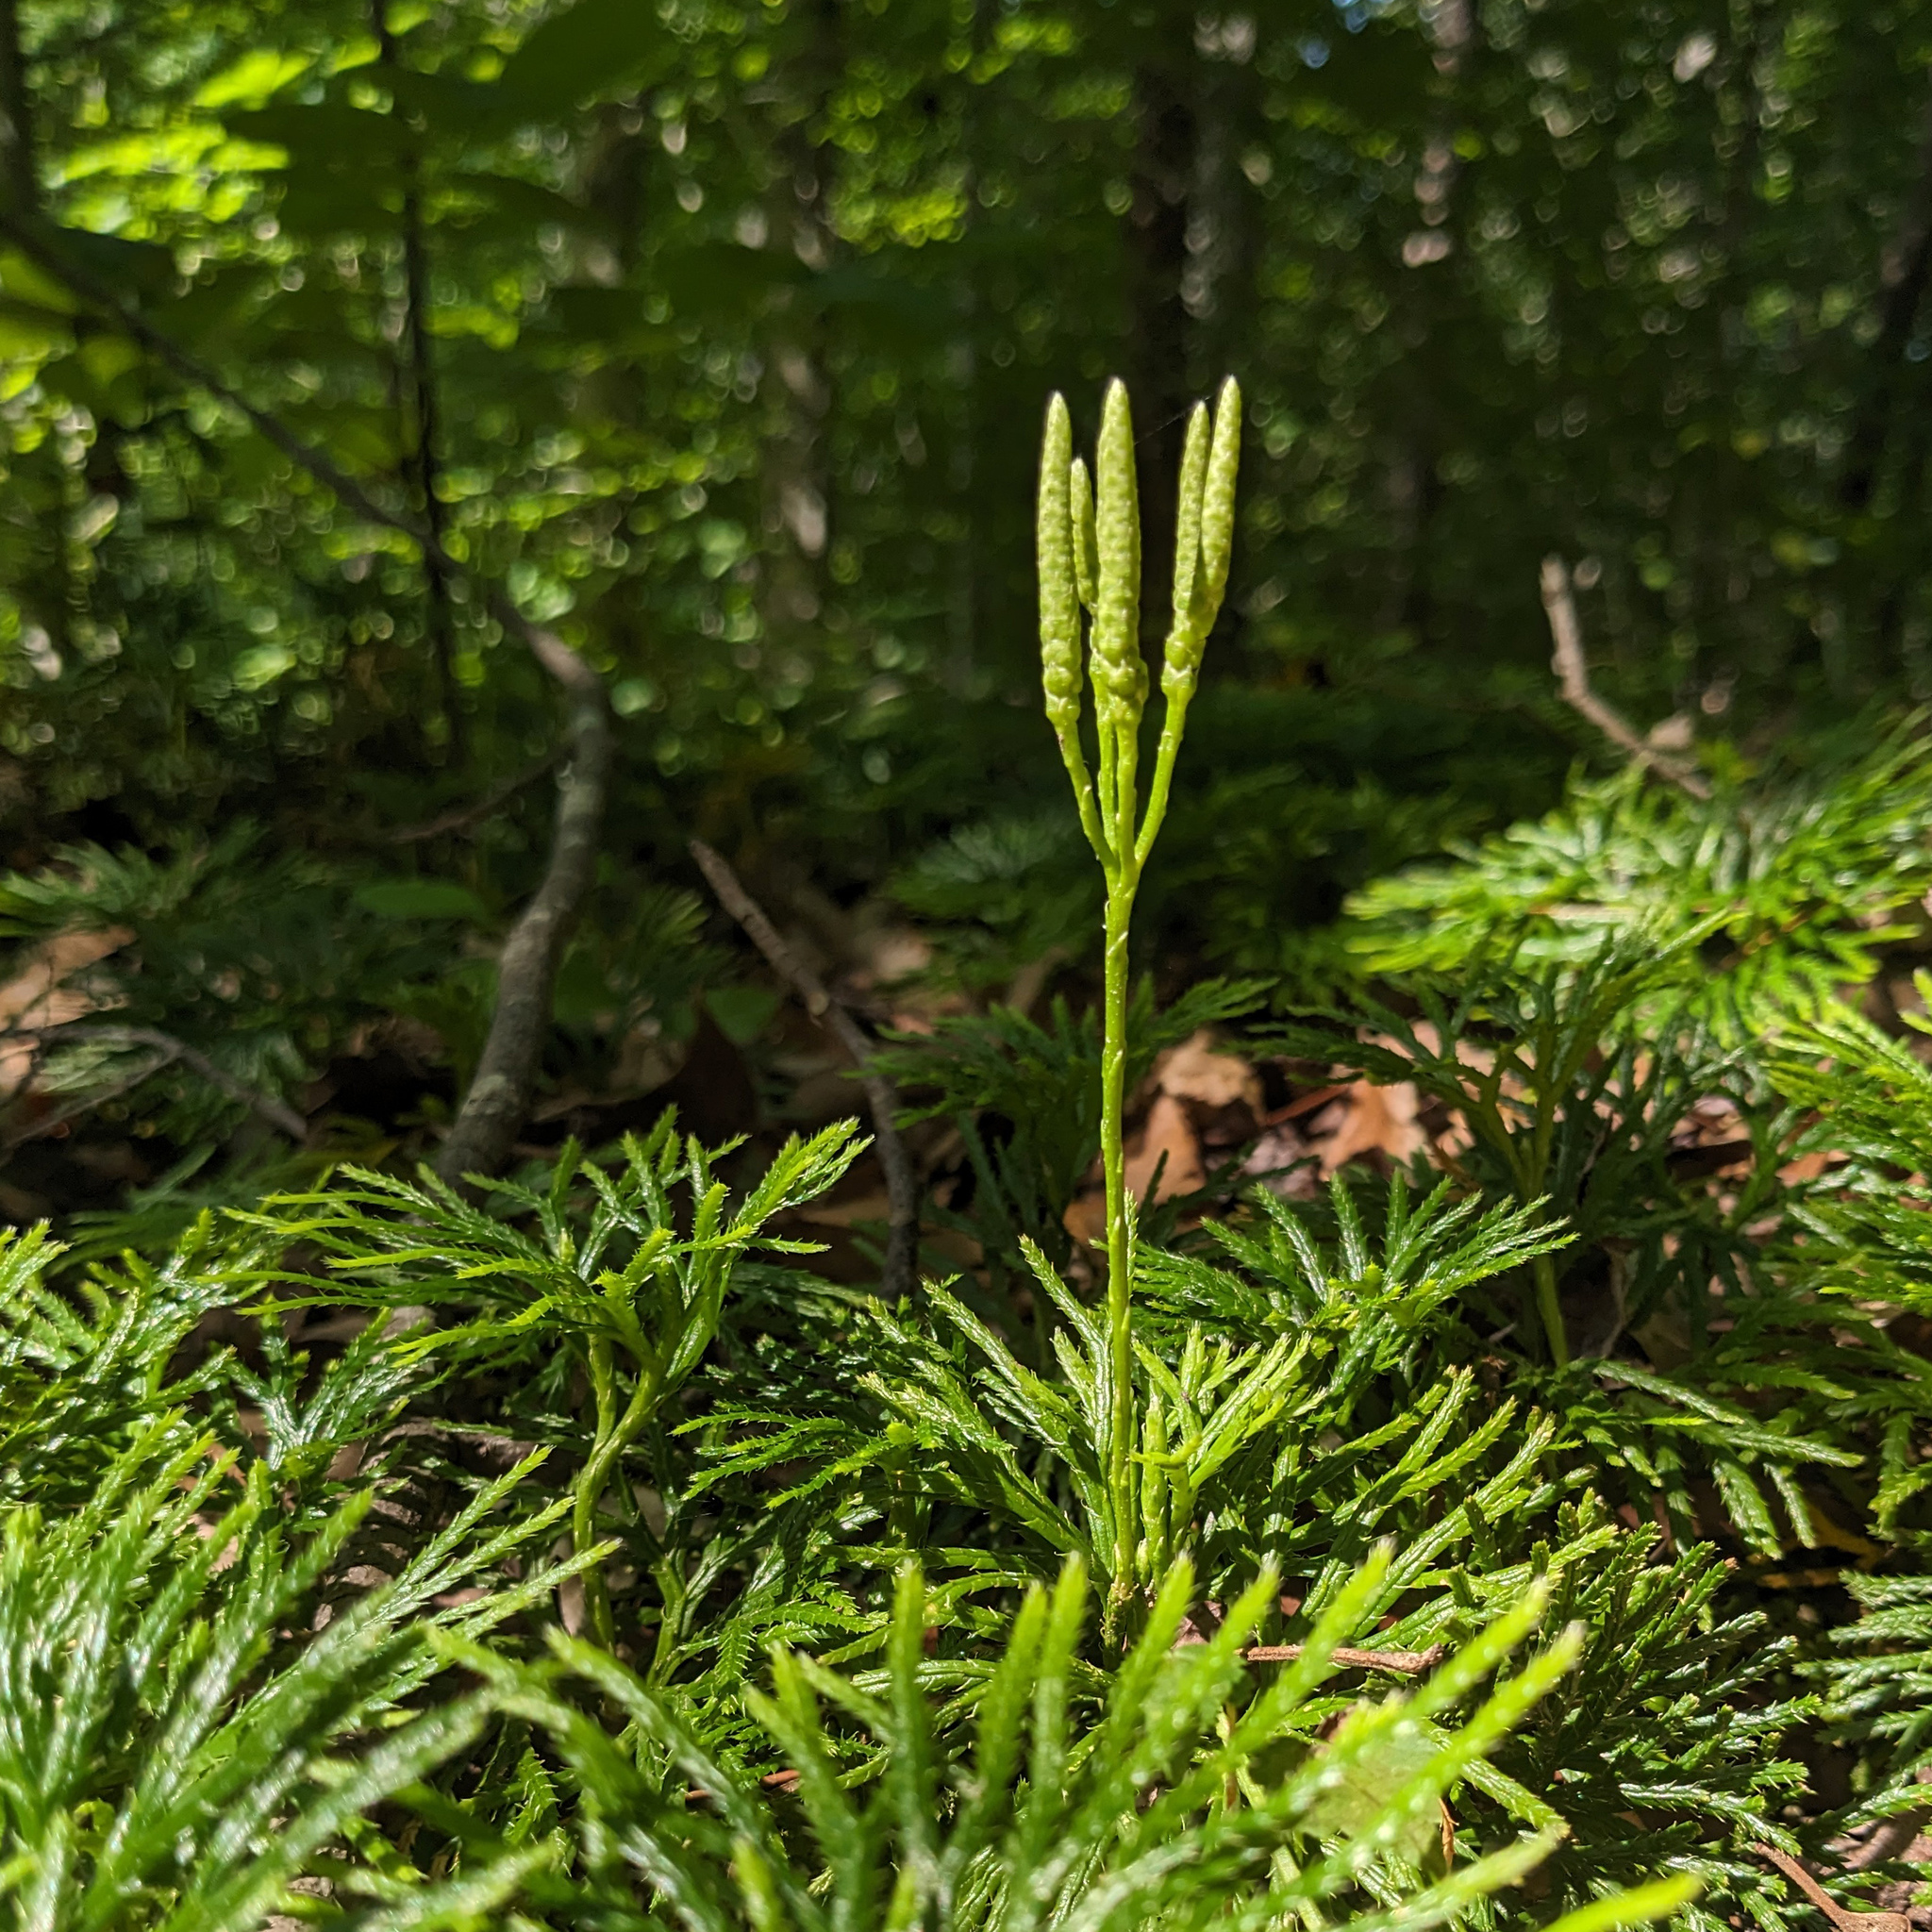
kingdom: Plantae
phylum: Tracheophyta
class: Lycopodiopsida
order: Lycopodiales
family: Lycopodiaceae
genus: Diphasiastrum
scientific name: Diphasiastrum digitatum
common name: Southern running-pine
